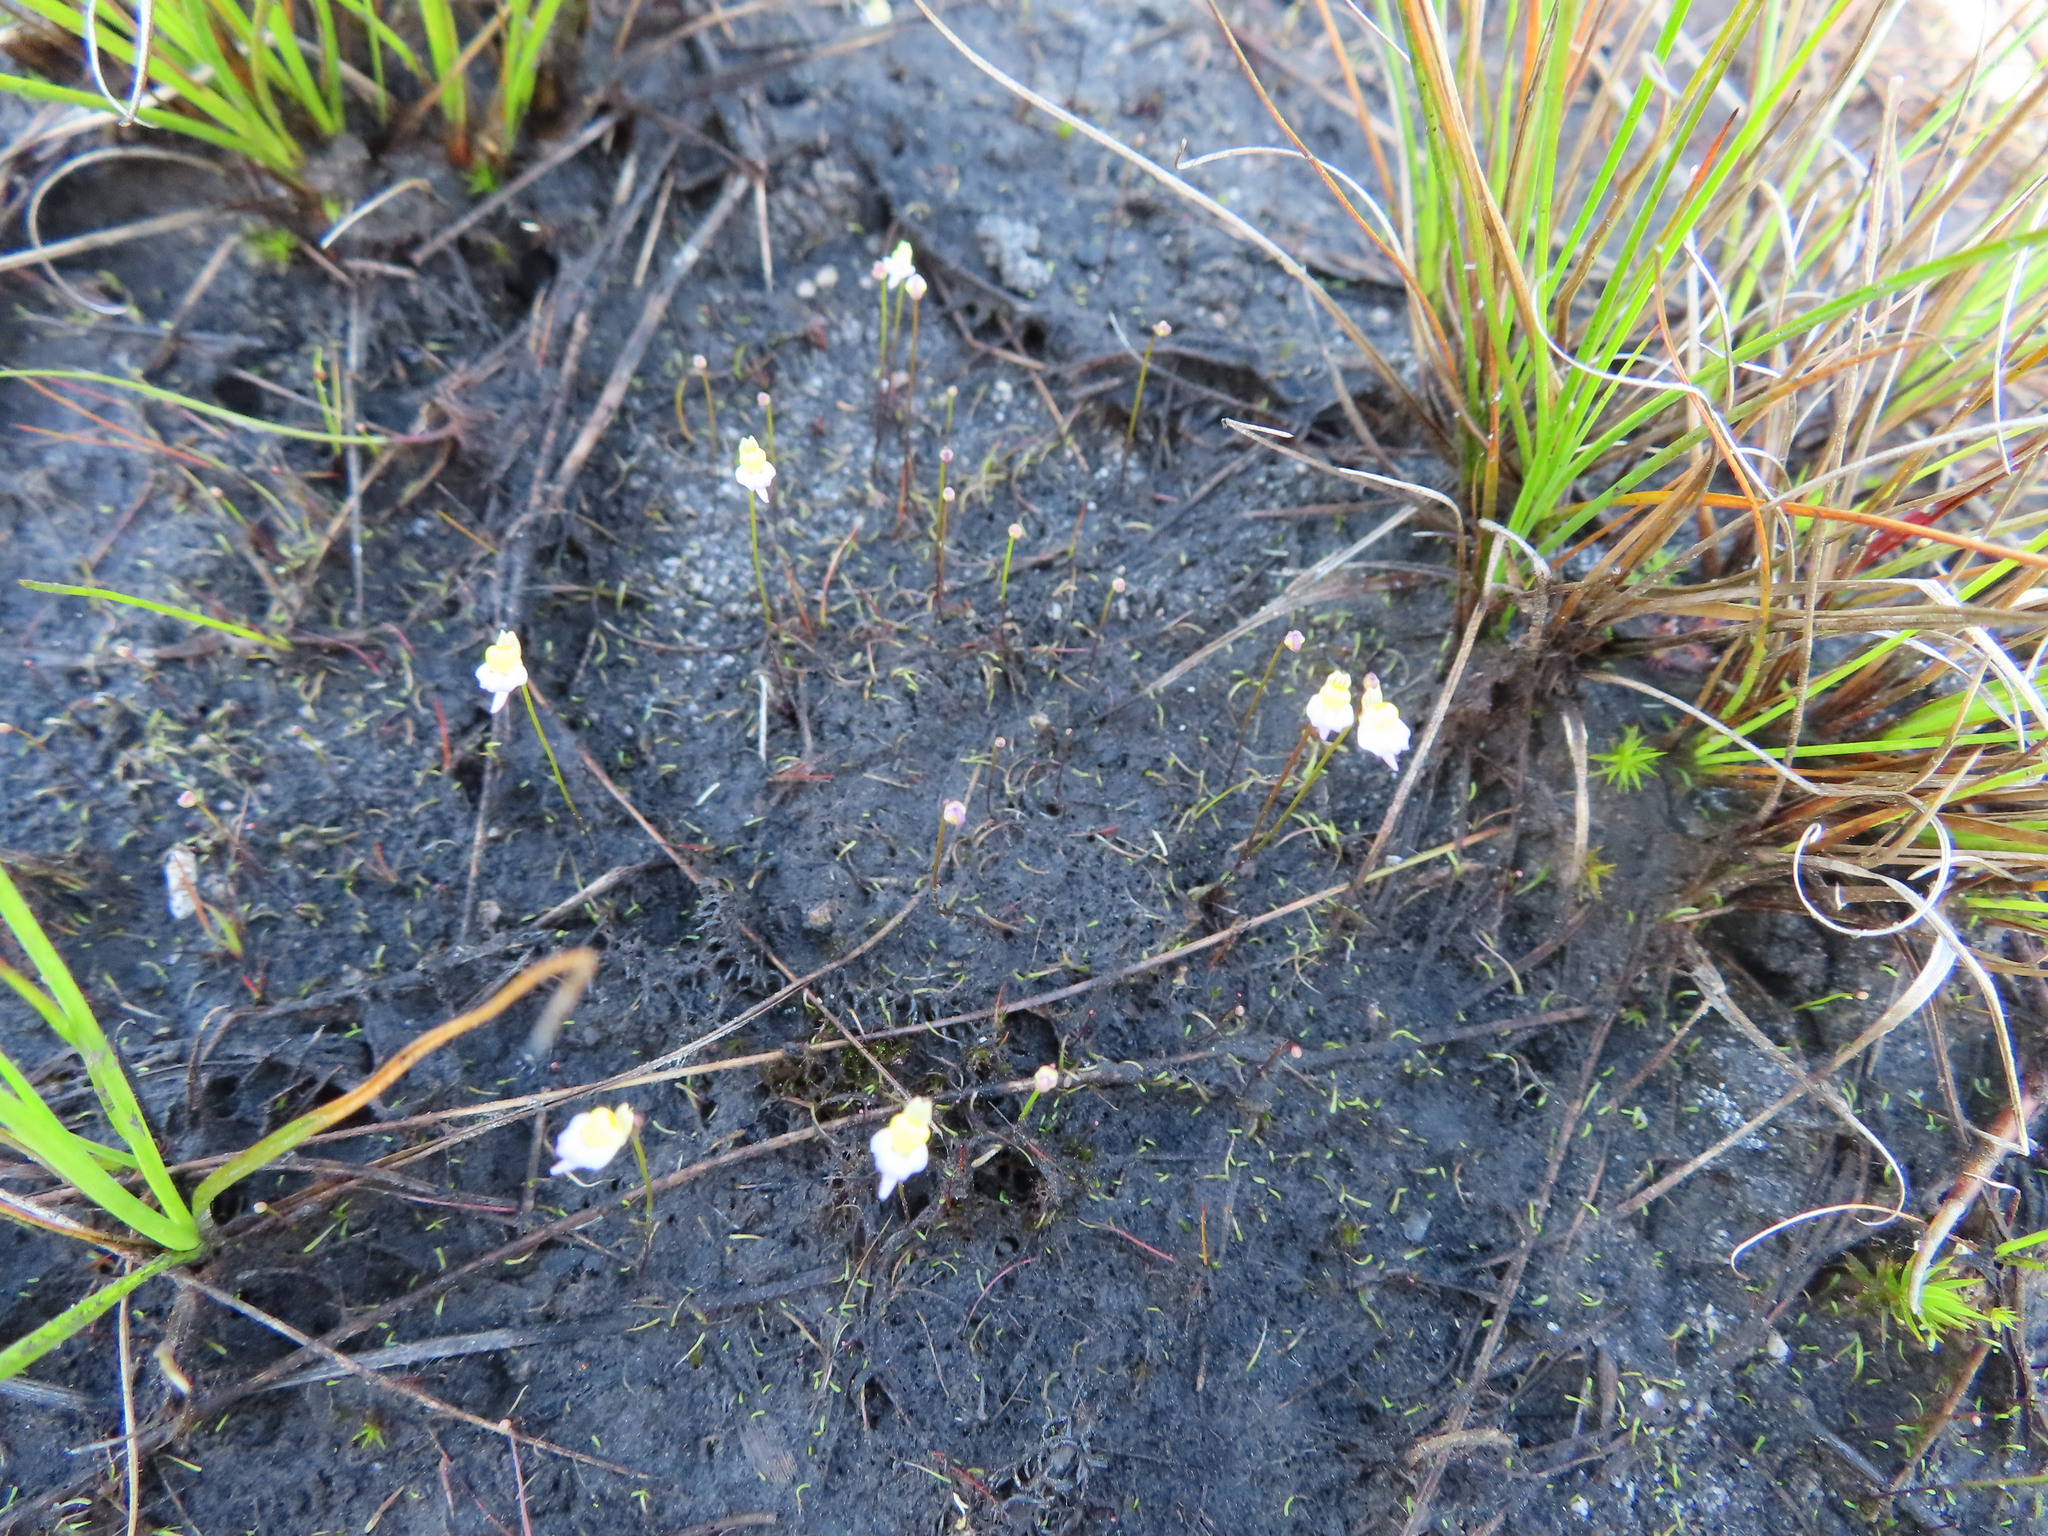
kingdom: Plantae
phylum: Tracheophyta
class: Magnoliopsida
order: Lamiales
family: Lentibulariaceae
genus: Utricularia
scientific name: Utricularia bisquamata
